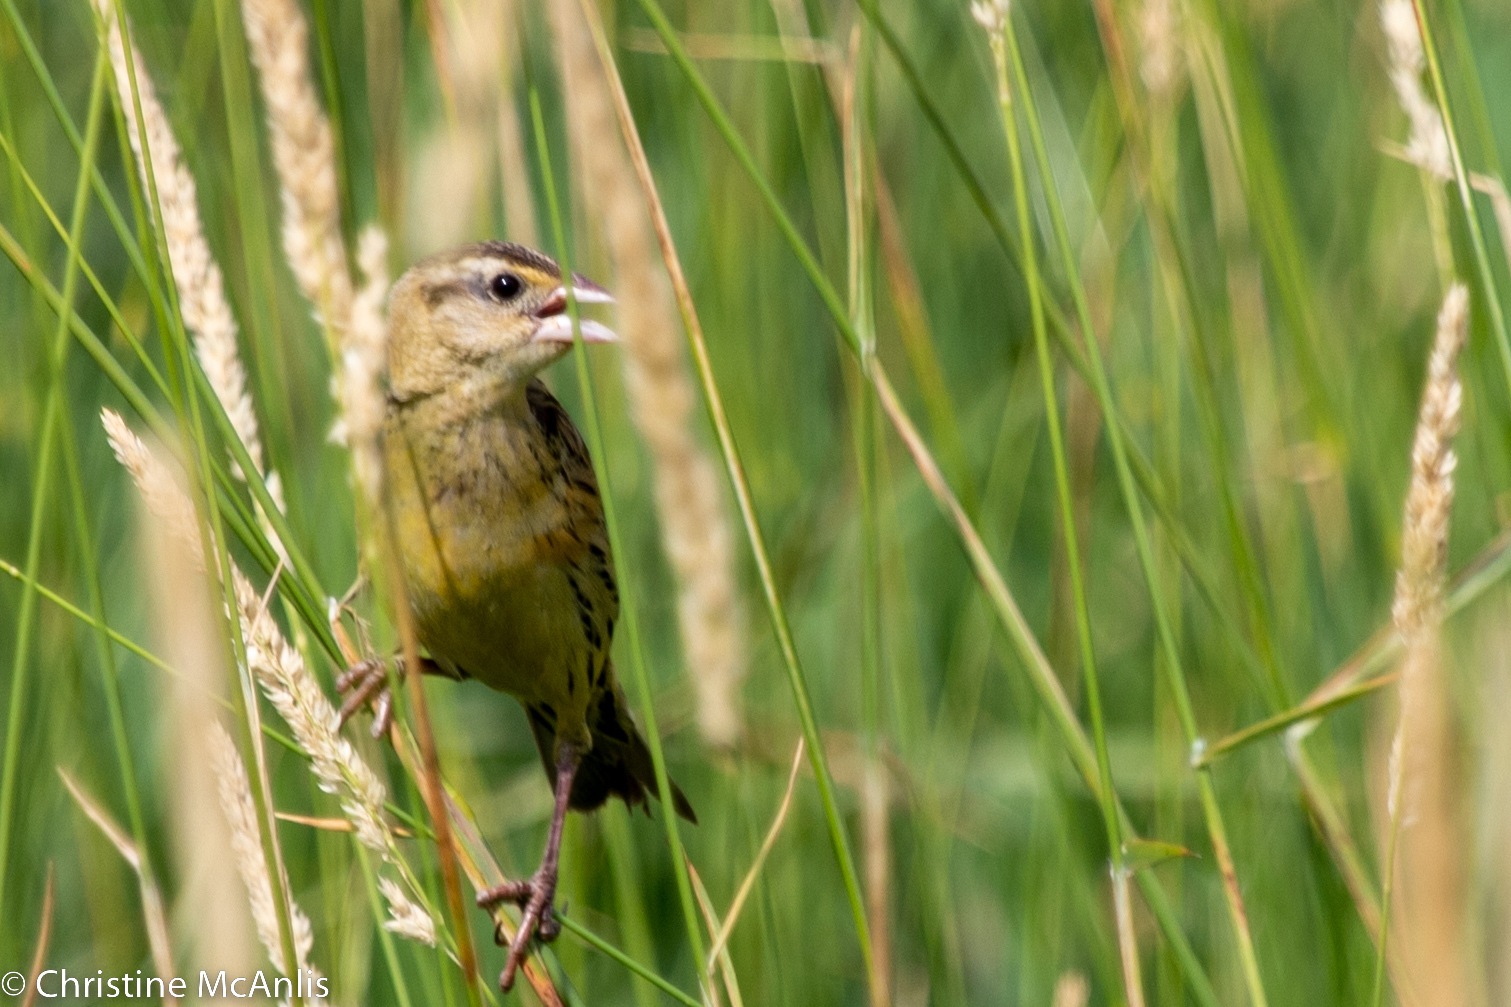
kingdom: Animalia
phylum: Chordata
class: Aves
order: Passeriformes
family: Icteridae
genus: Dolichonyx
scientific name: Dolichonyx oryzivorus
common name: Bobolink
